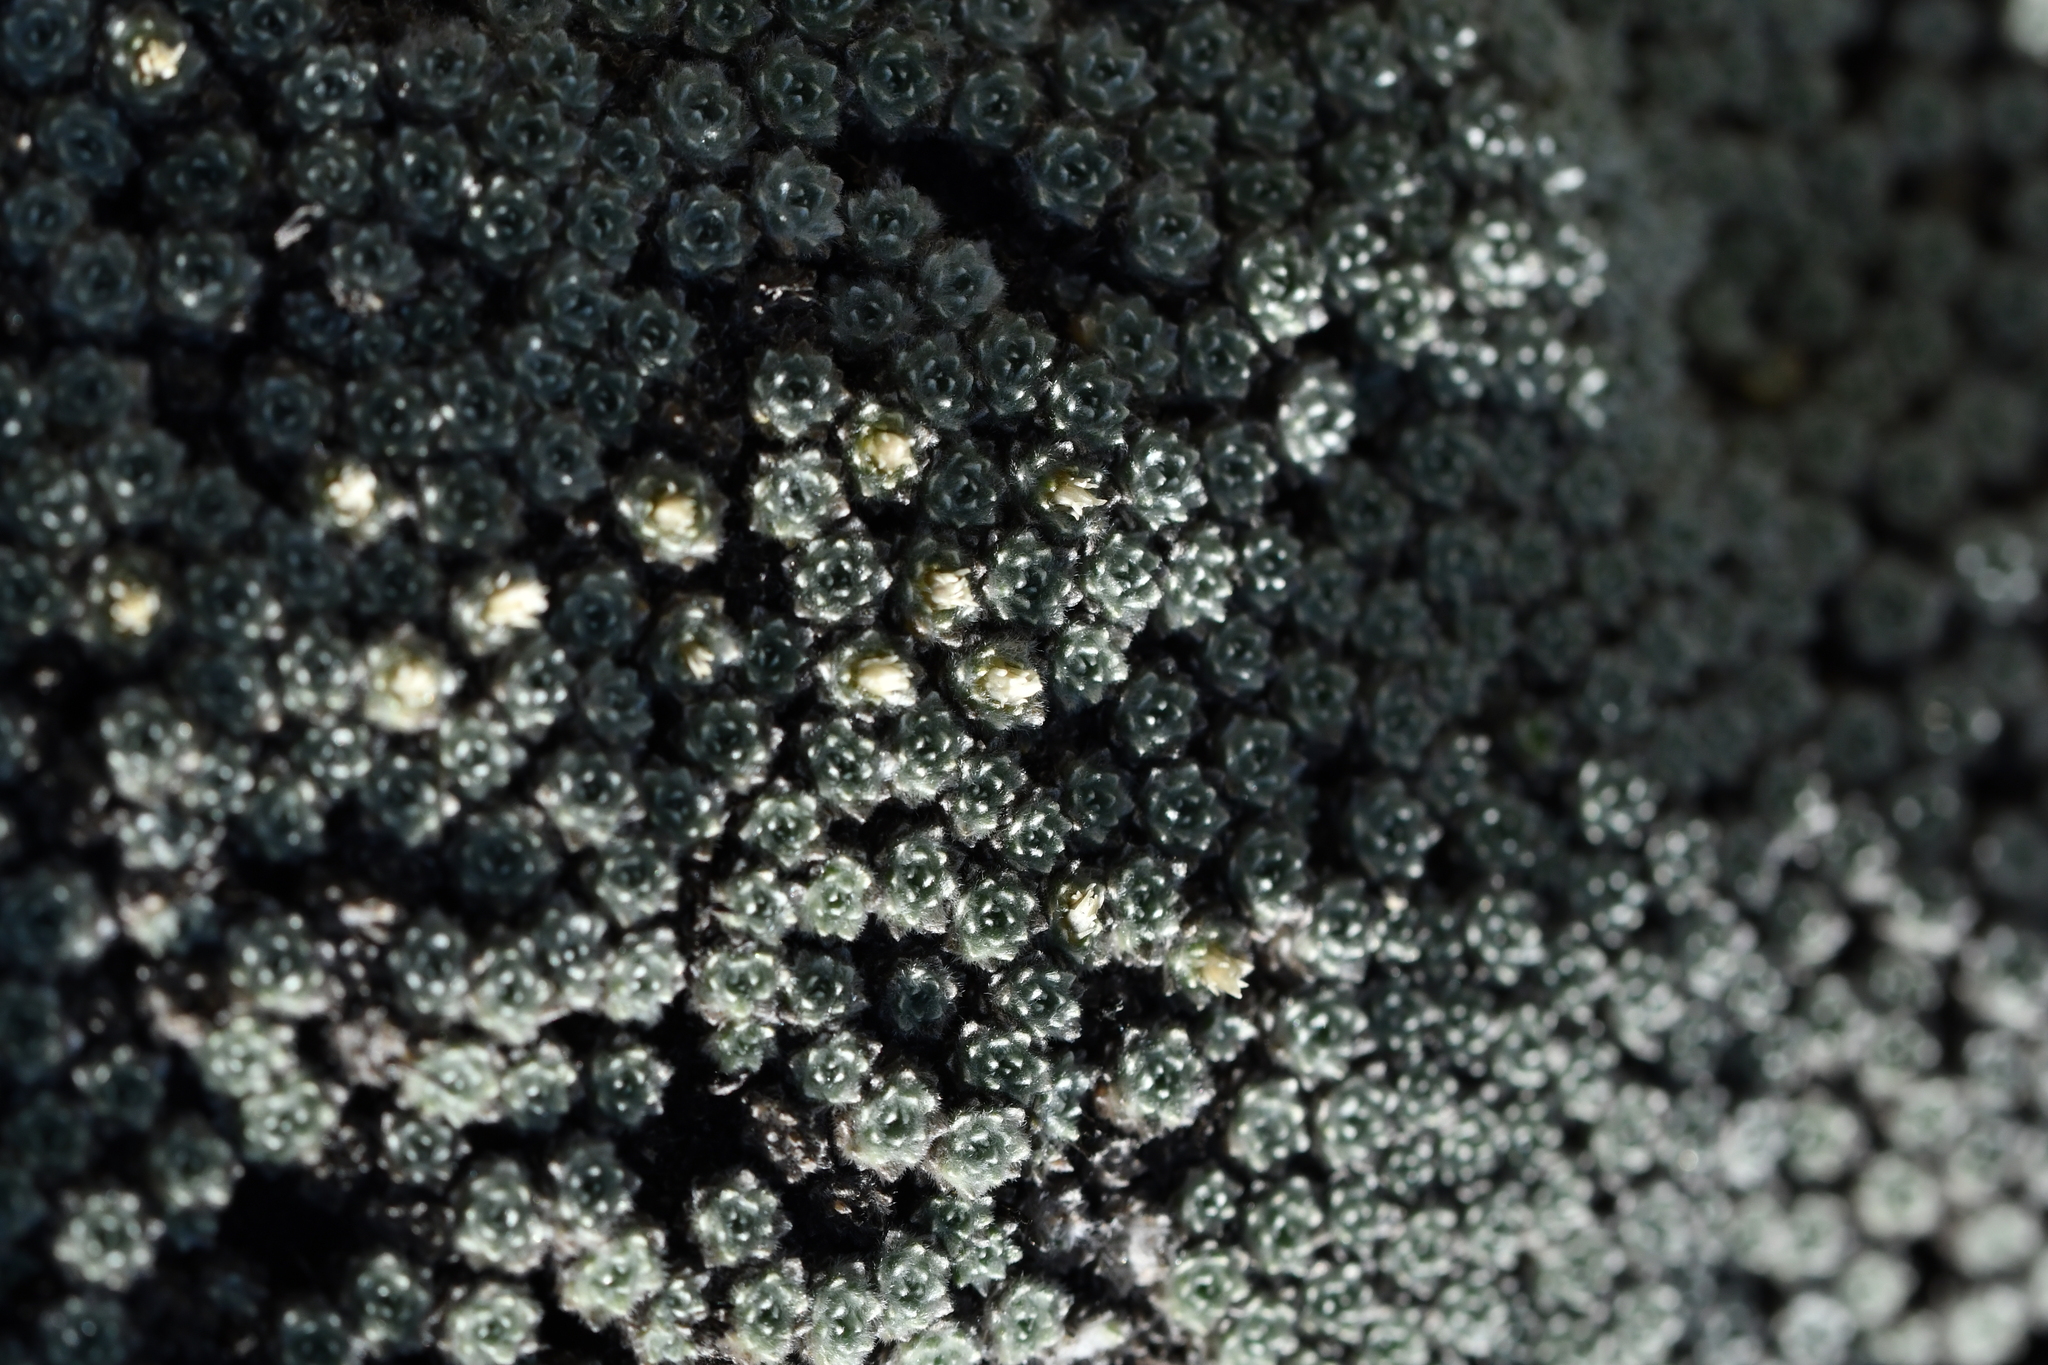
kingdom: Plantae
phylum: Tracheophyta
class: Magnoliopsida
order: Asterales
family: Asteraceae
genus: Raoulia
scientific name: Raoulia mammillaris
